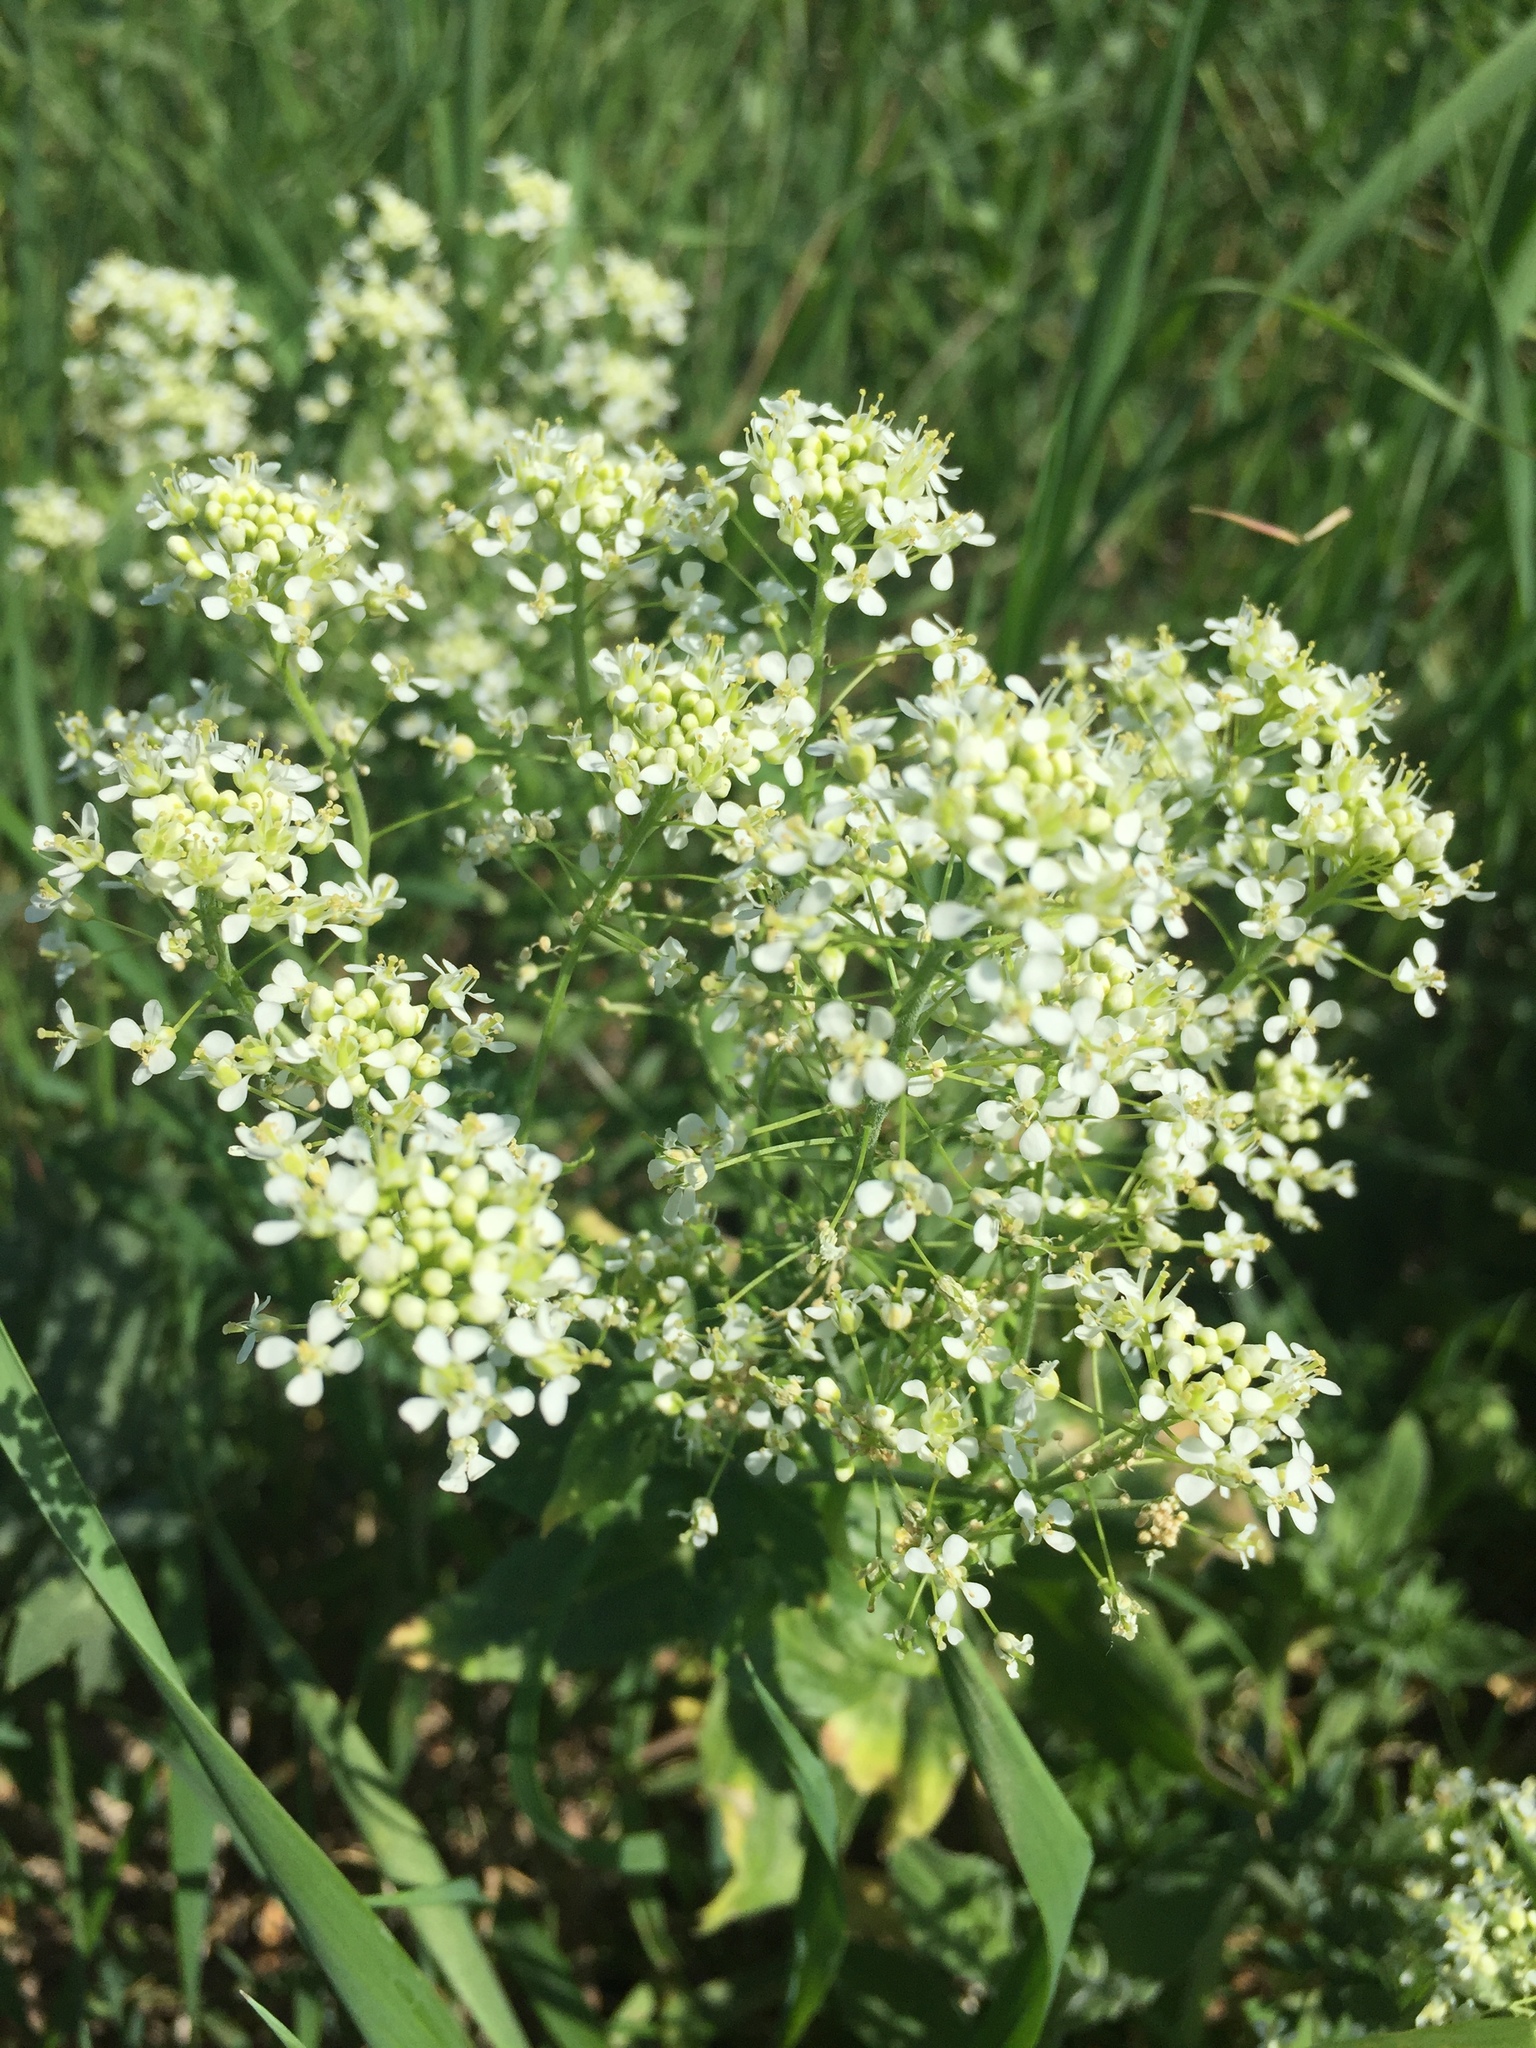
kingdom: Plantae
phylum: Tracheophyta
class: Magnoliopsida
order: Brassicales
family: Brassicaceae
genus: Lepidium
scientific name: Lepidium draba
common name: Hoary cress
